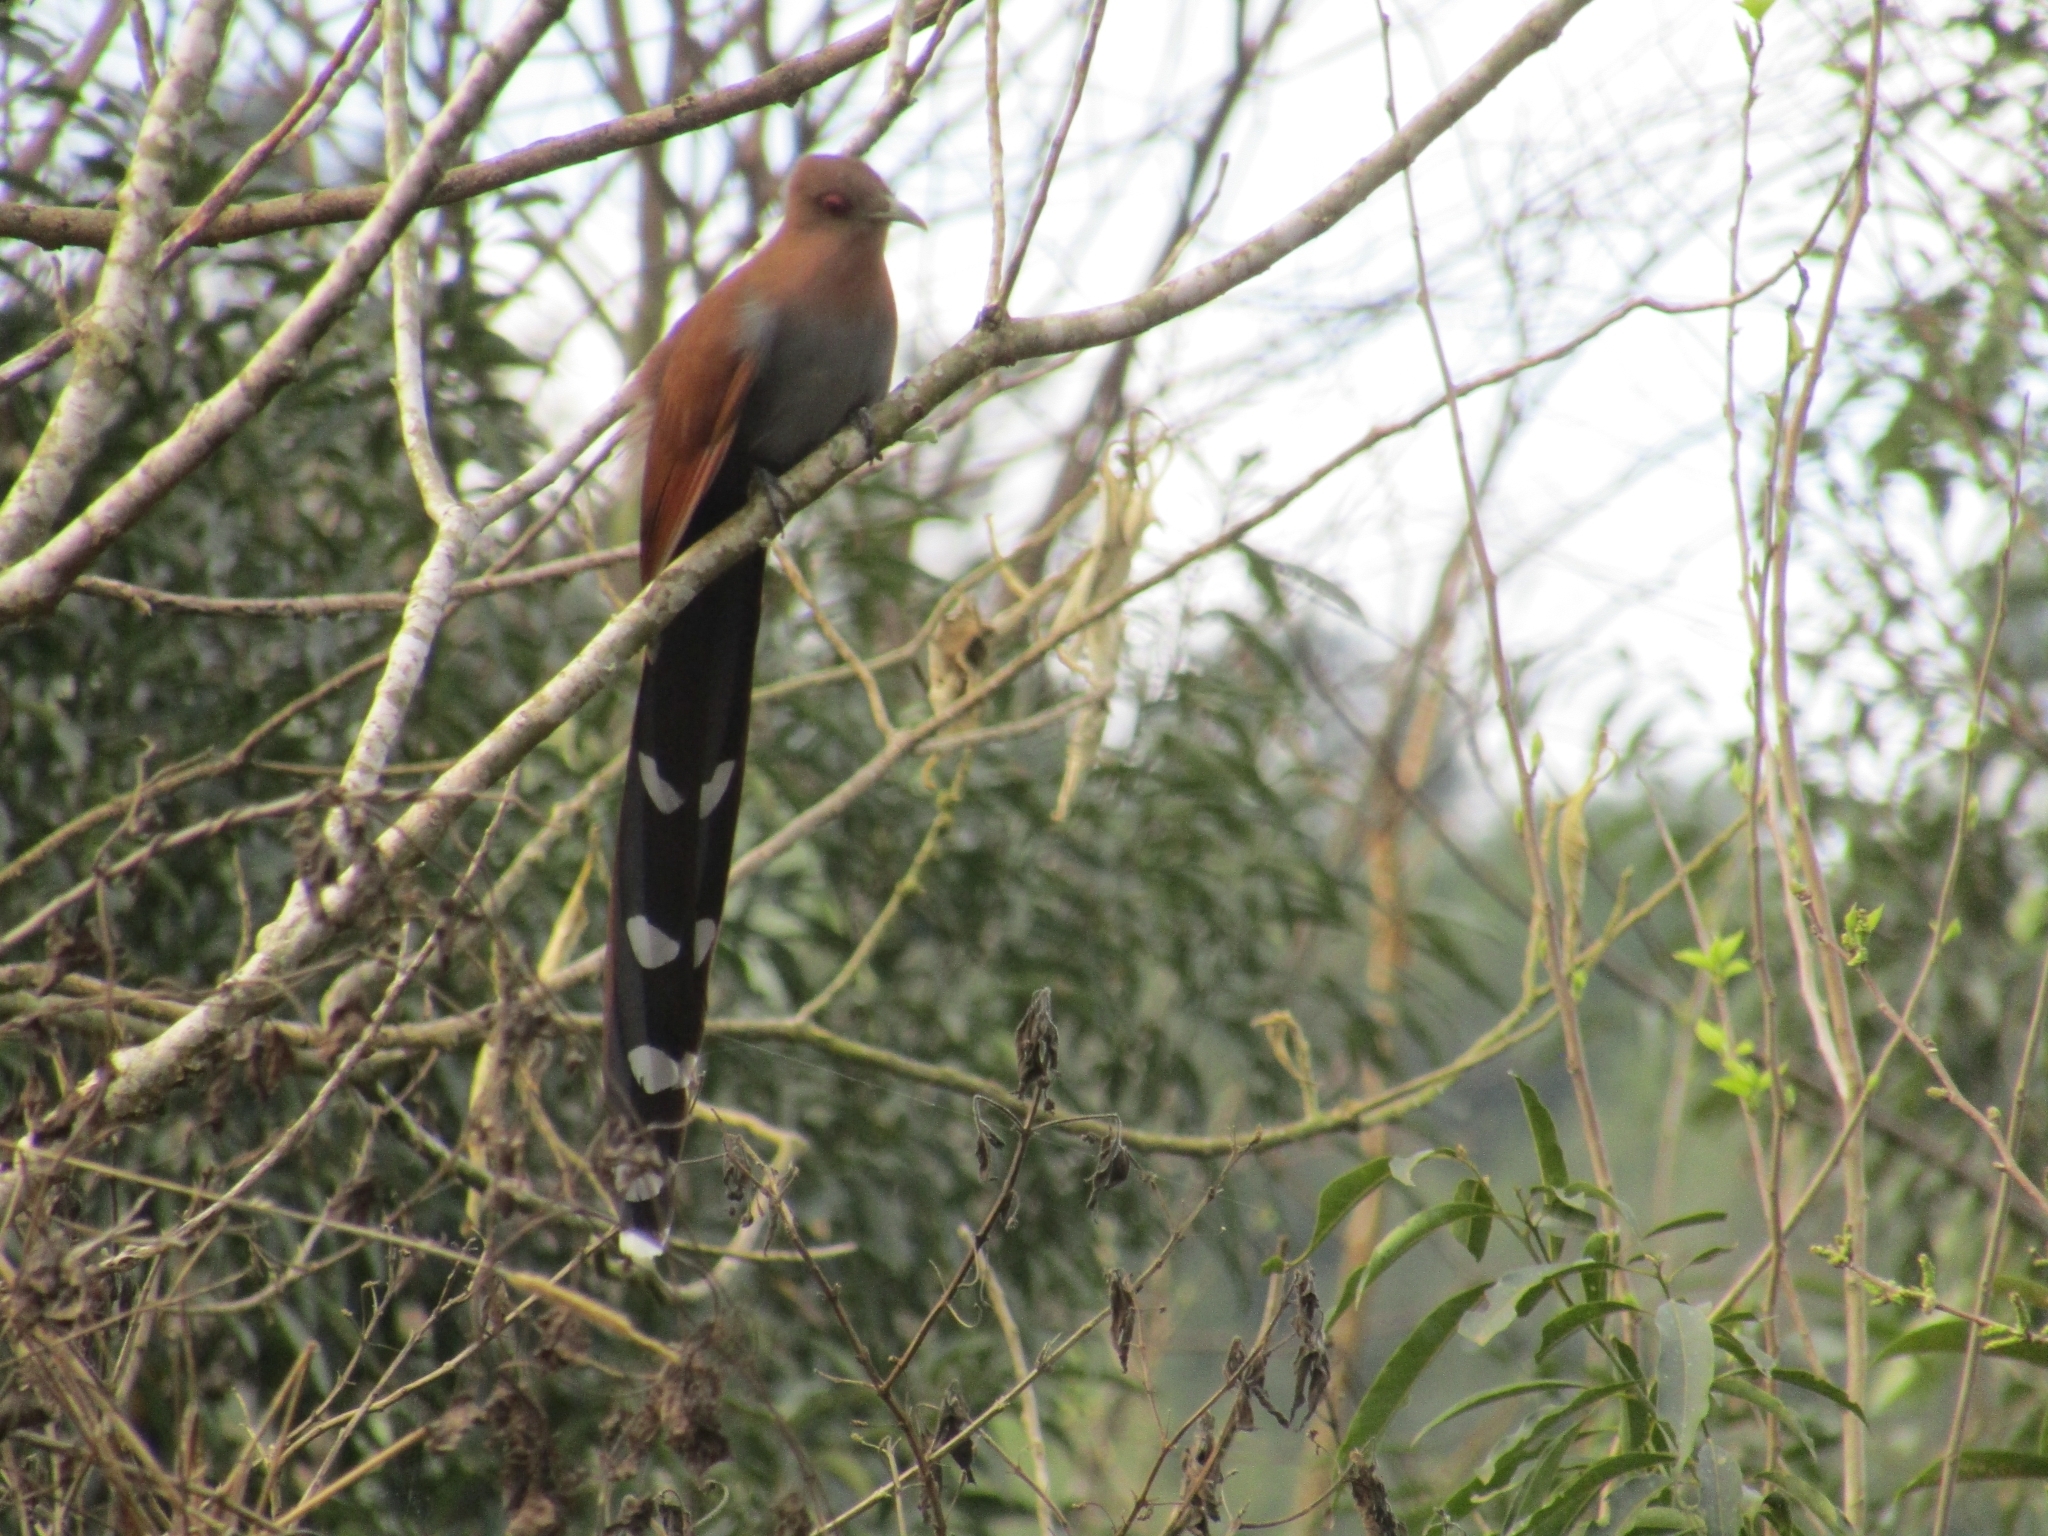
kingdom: Animalia
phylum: Chordata
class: Aves
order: Cuculiformes
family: Cuculidae
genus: Piaya
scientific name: Piaya cayana
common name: Squirrel cuckoo
